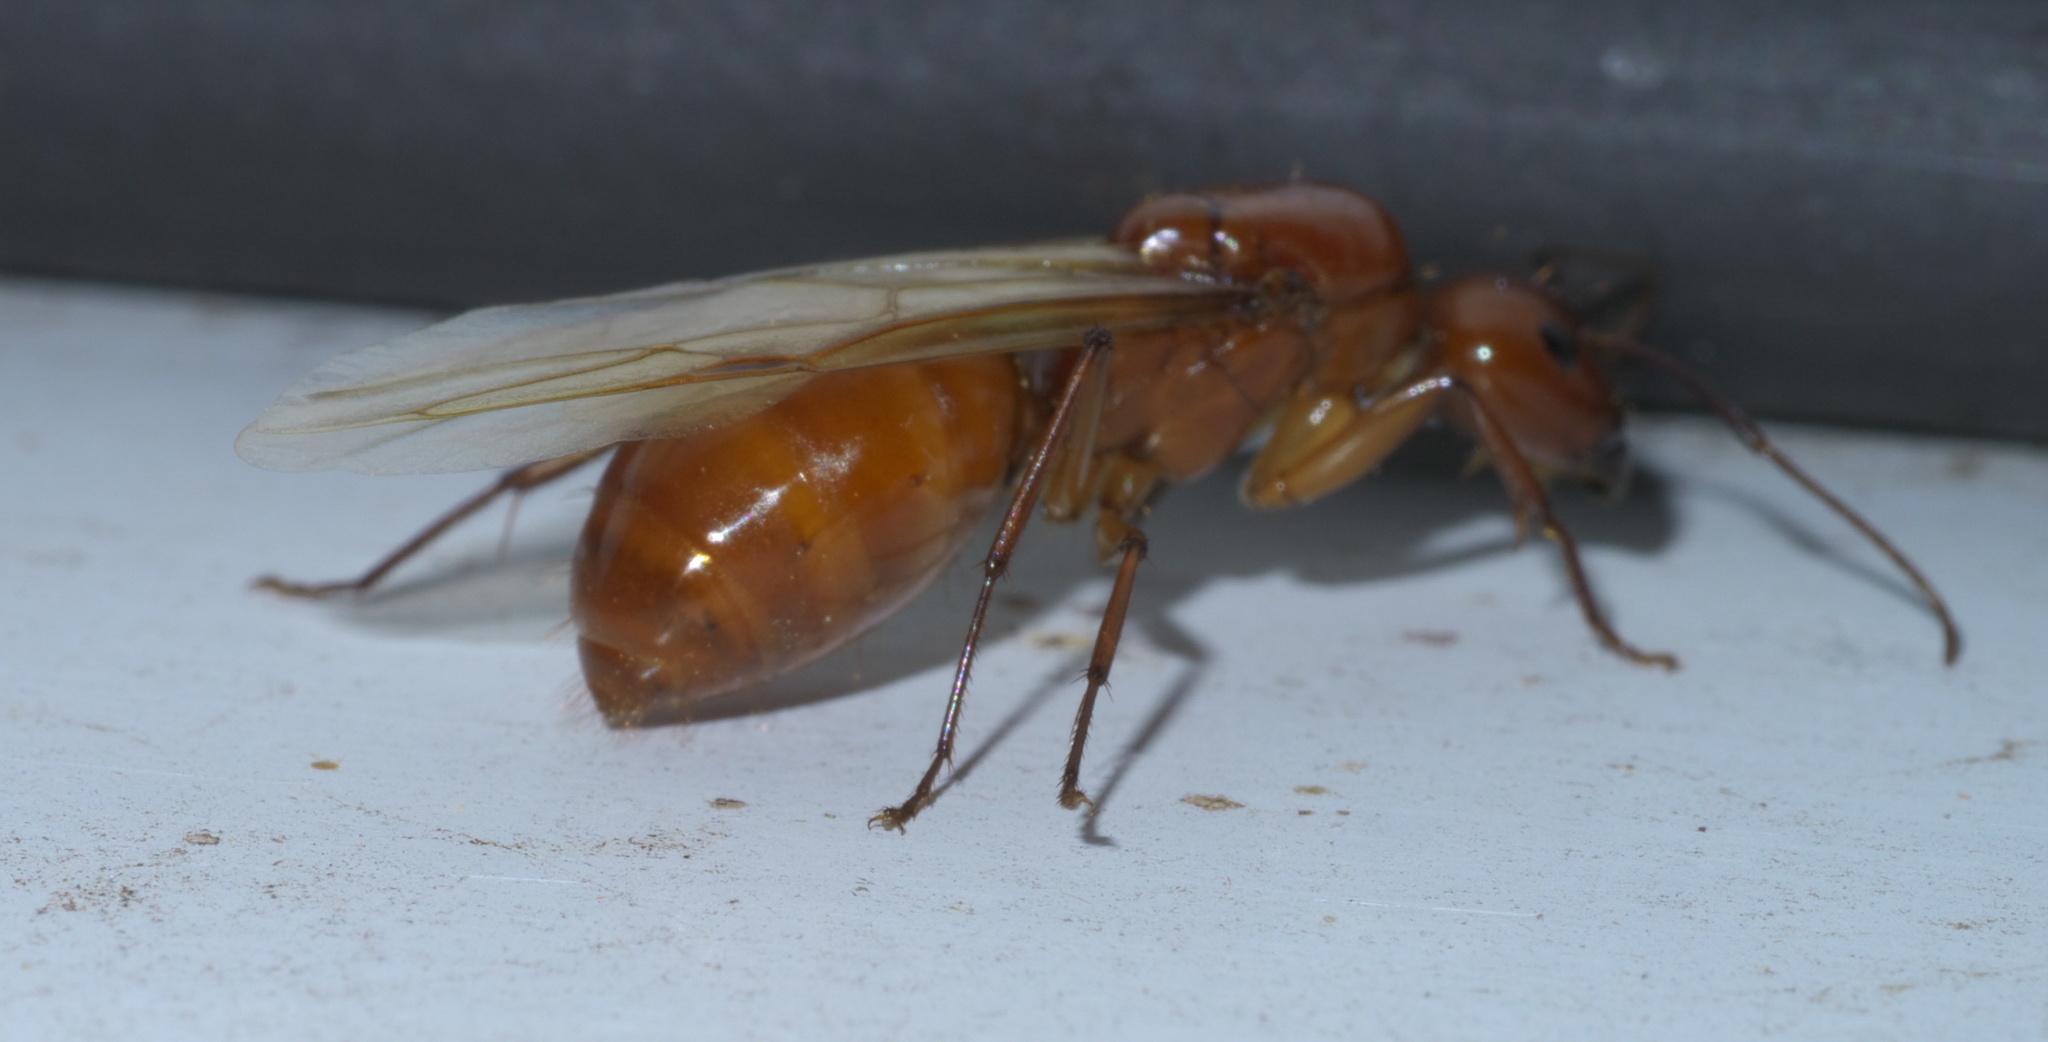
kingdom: Animalia
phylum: Arthropoda
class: Insecta
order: Hymenoptera
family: Formicidae
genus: Camponotus
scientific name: Camponotus castaneus
